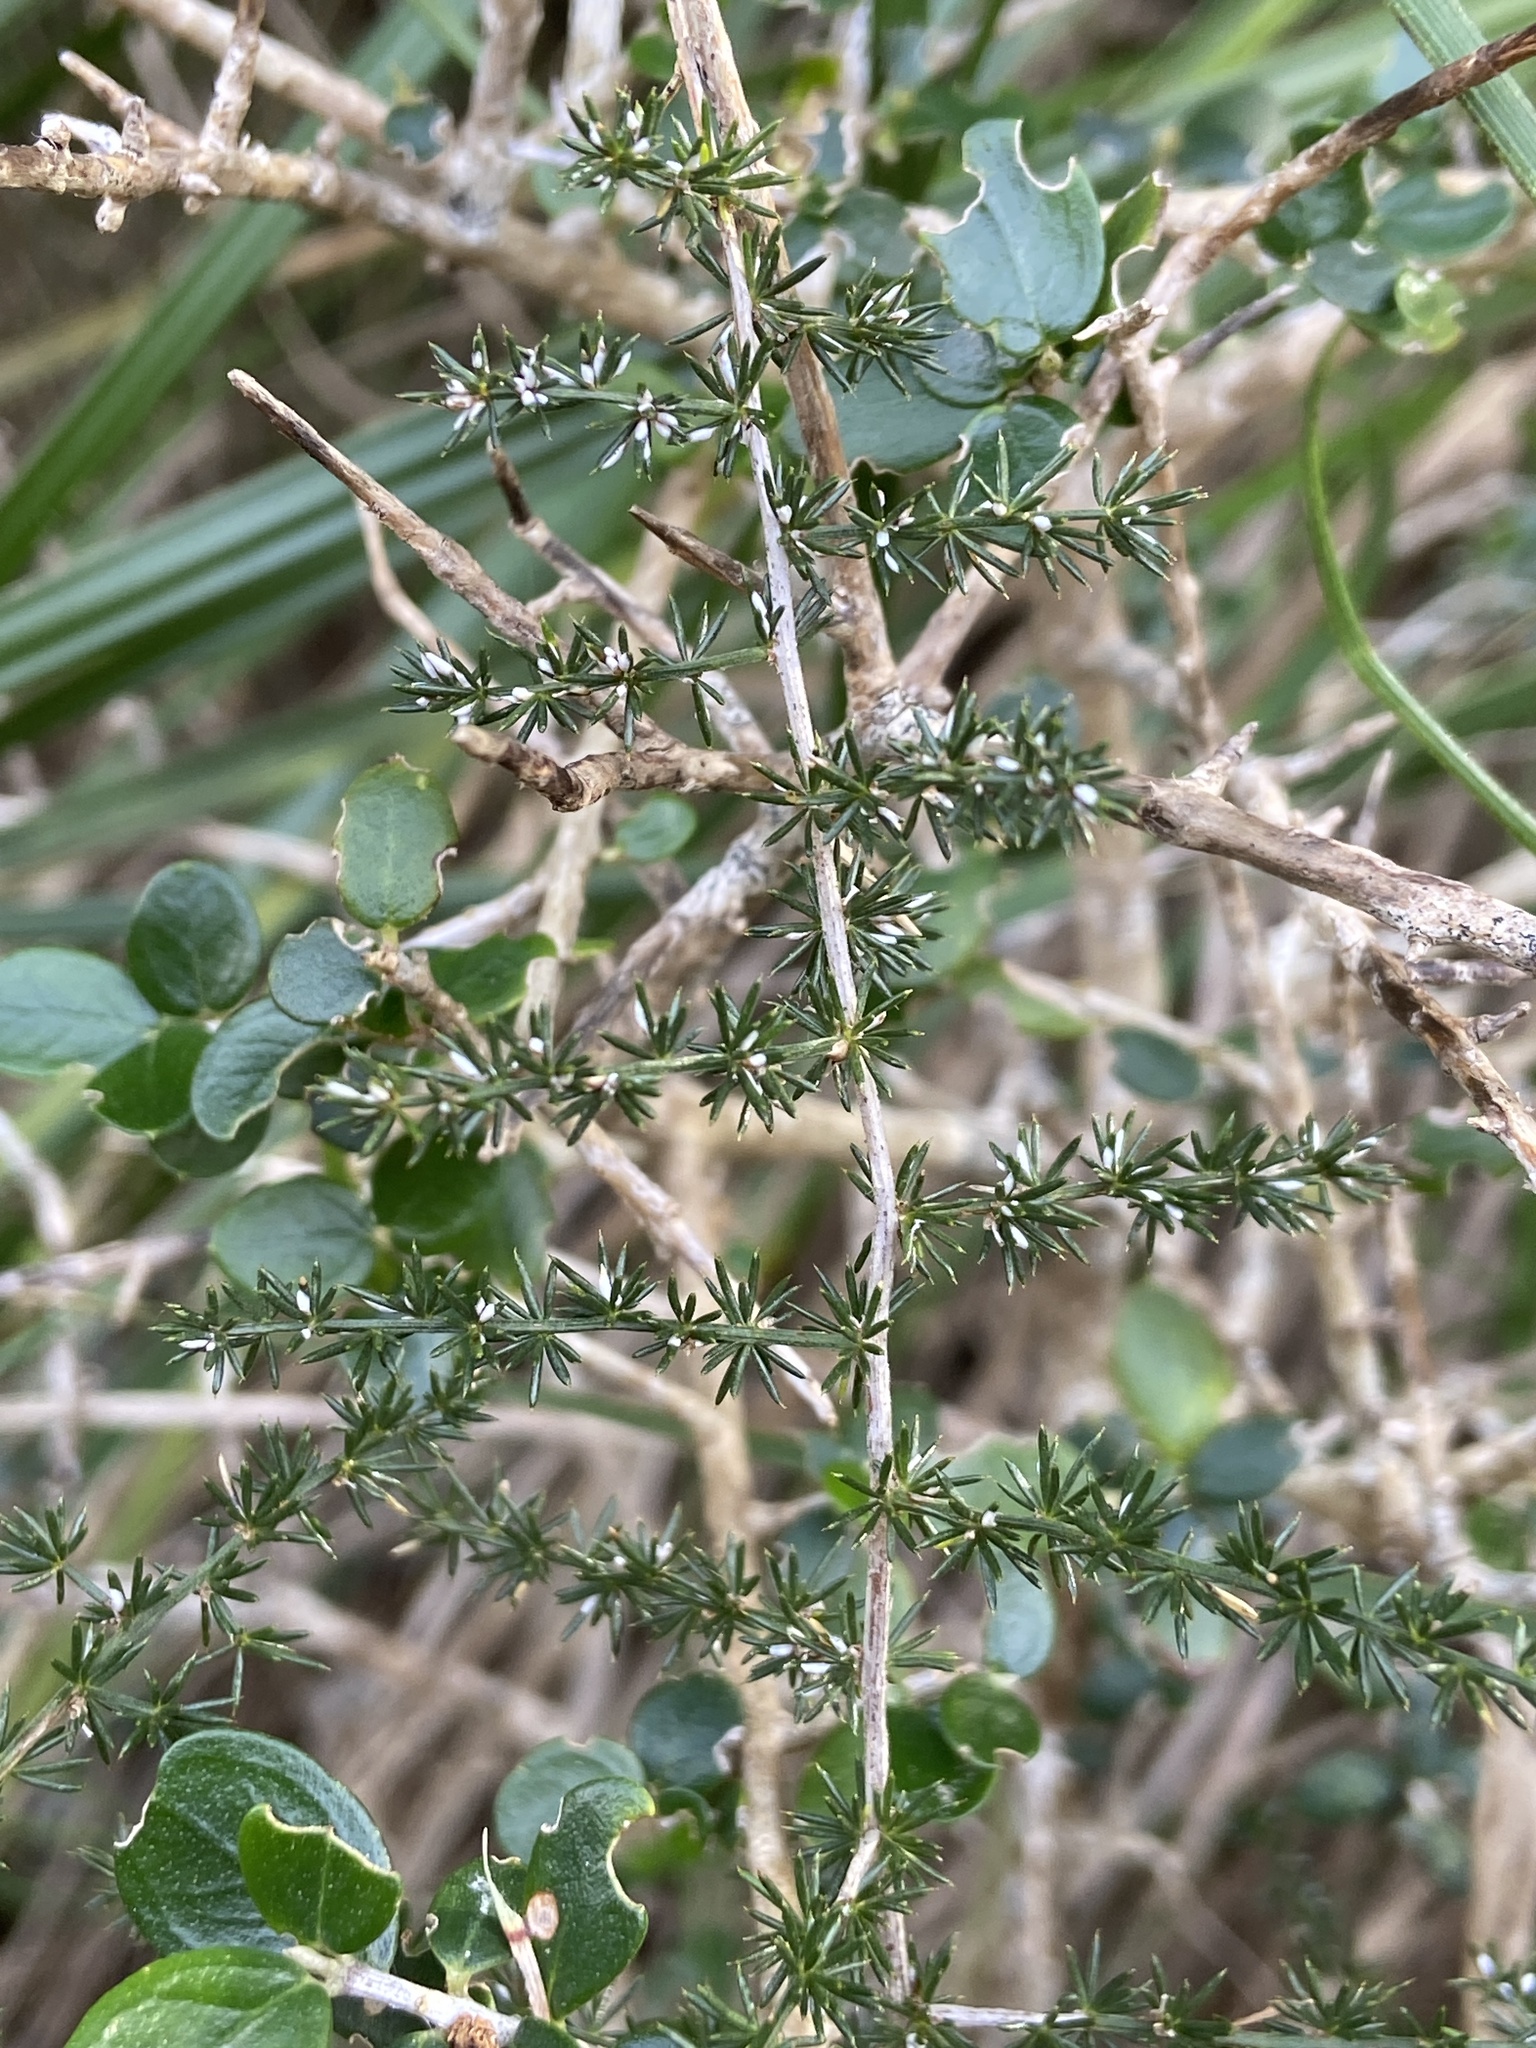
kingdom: Plantae
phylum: Tracheophyta
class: Liliopsida
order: Asparagales
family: Asparagaceae
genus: Asparagus
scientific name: Asparagus acutifolius
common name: Wild asparagus
